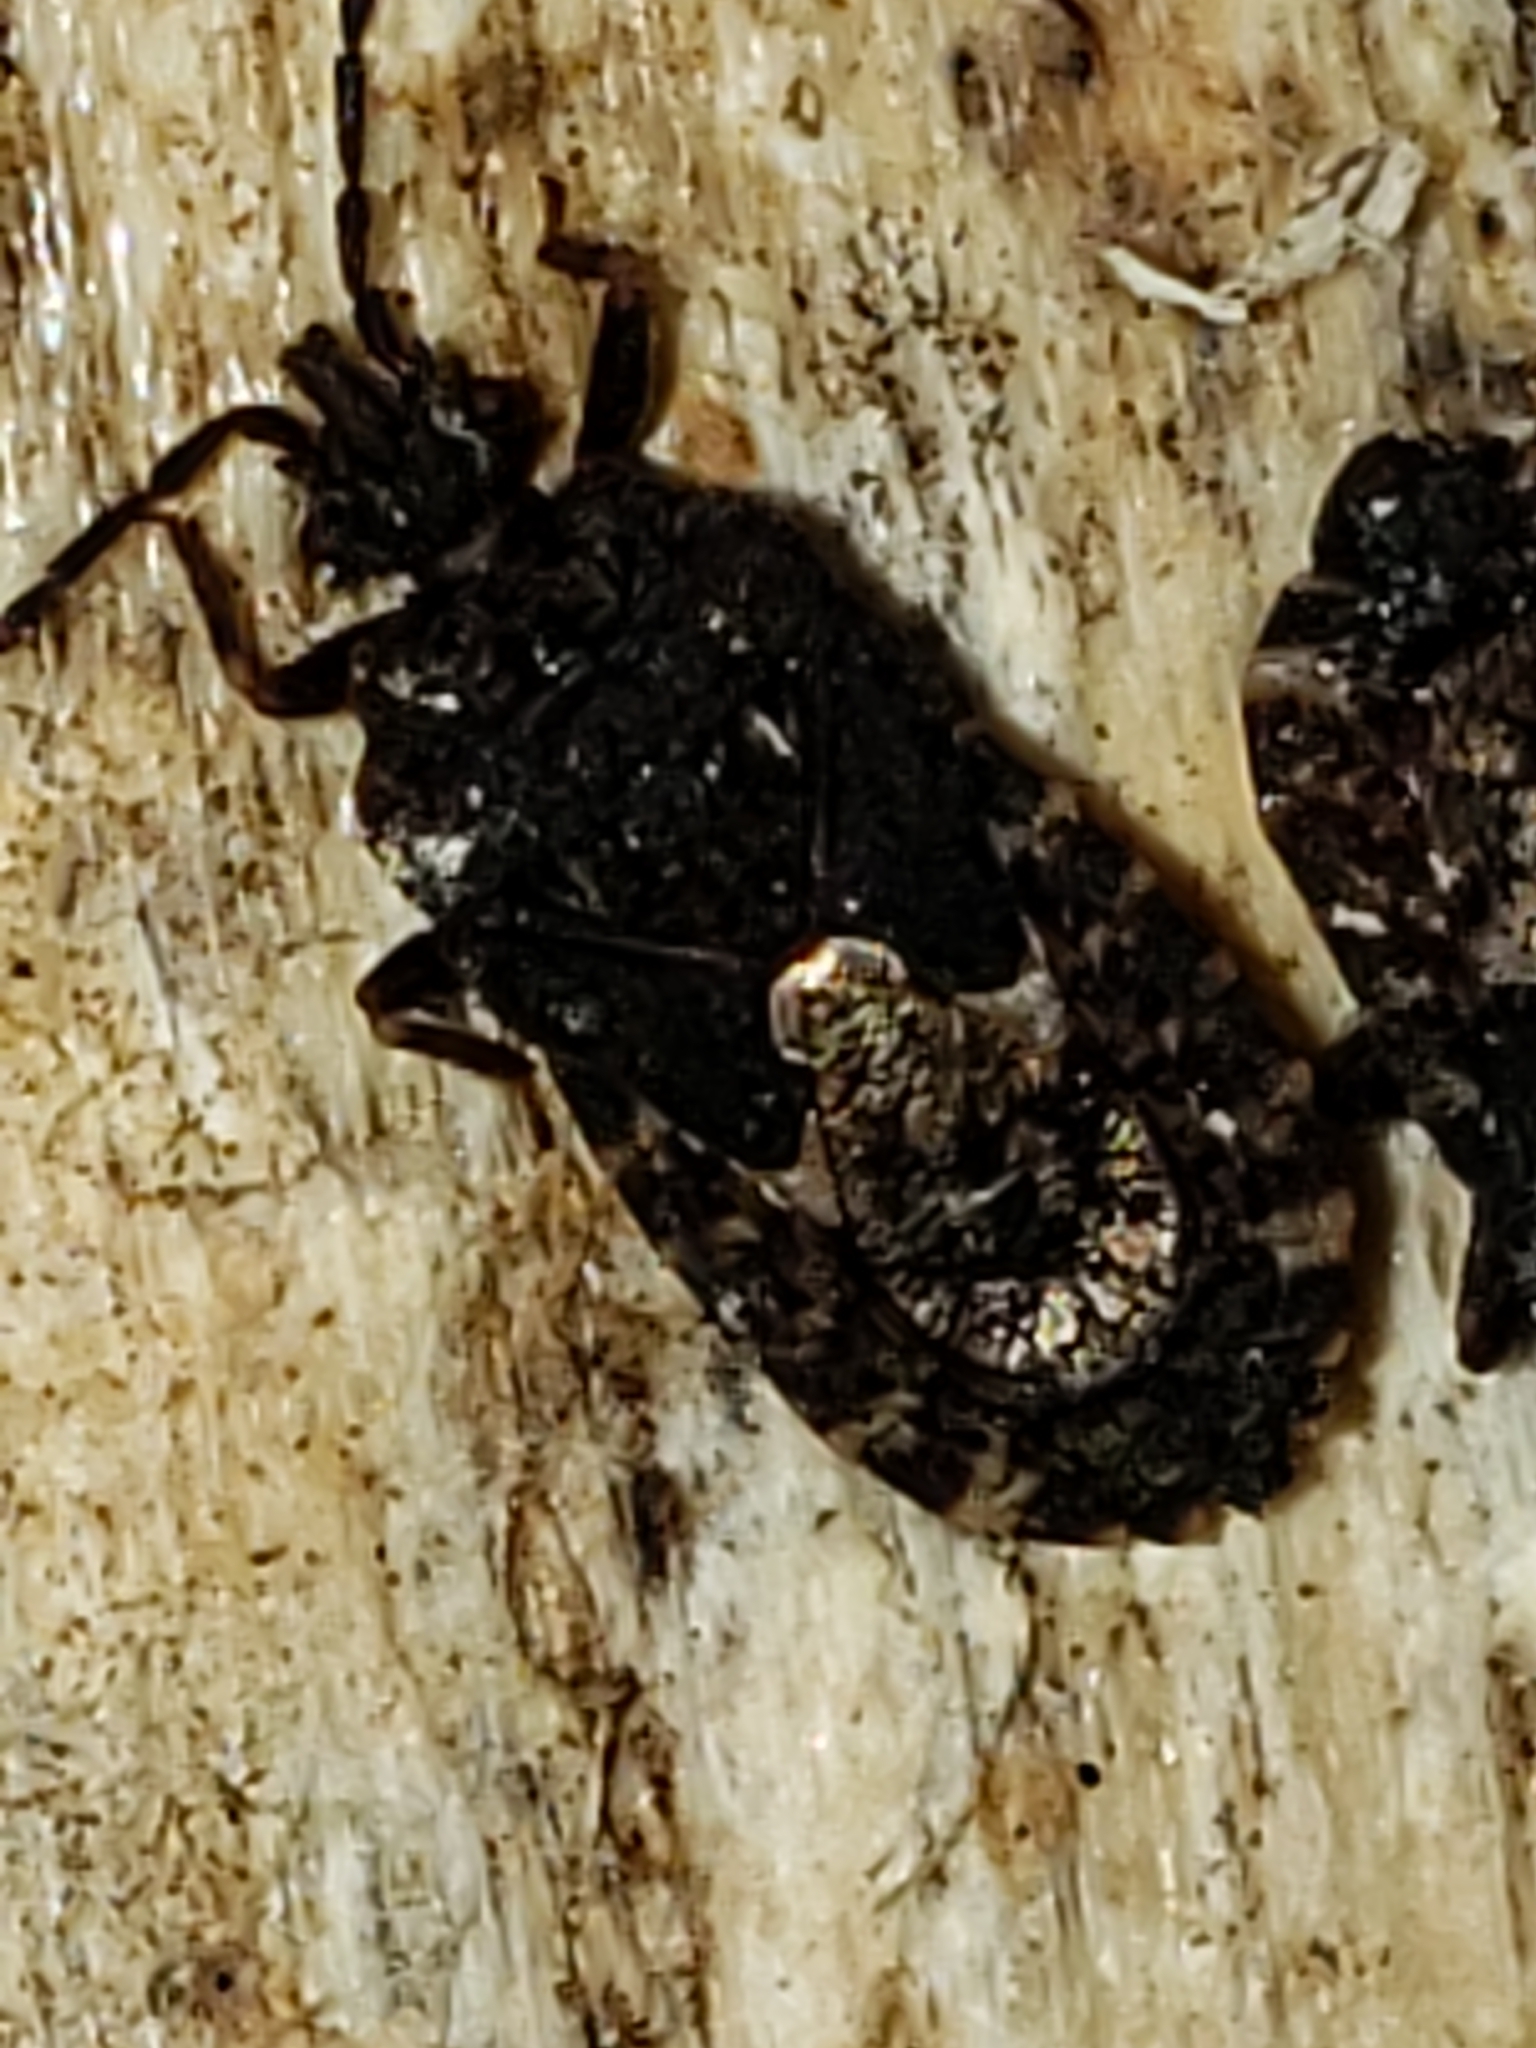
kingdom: Animalia
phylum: Arthropoda
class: Insecta
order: Hemiptera
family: Aradidae
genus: Mezira
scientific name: Mezira
